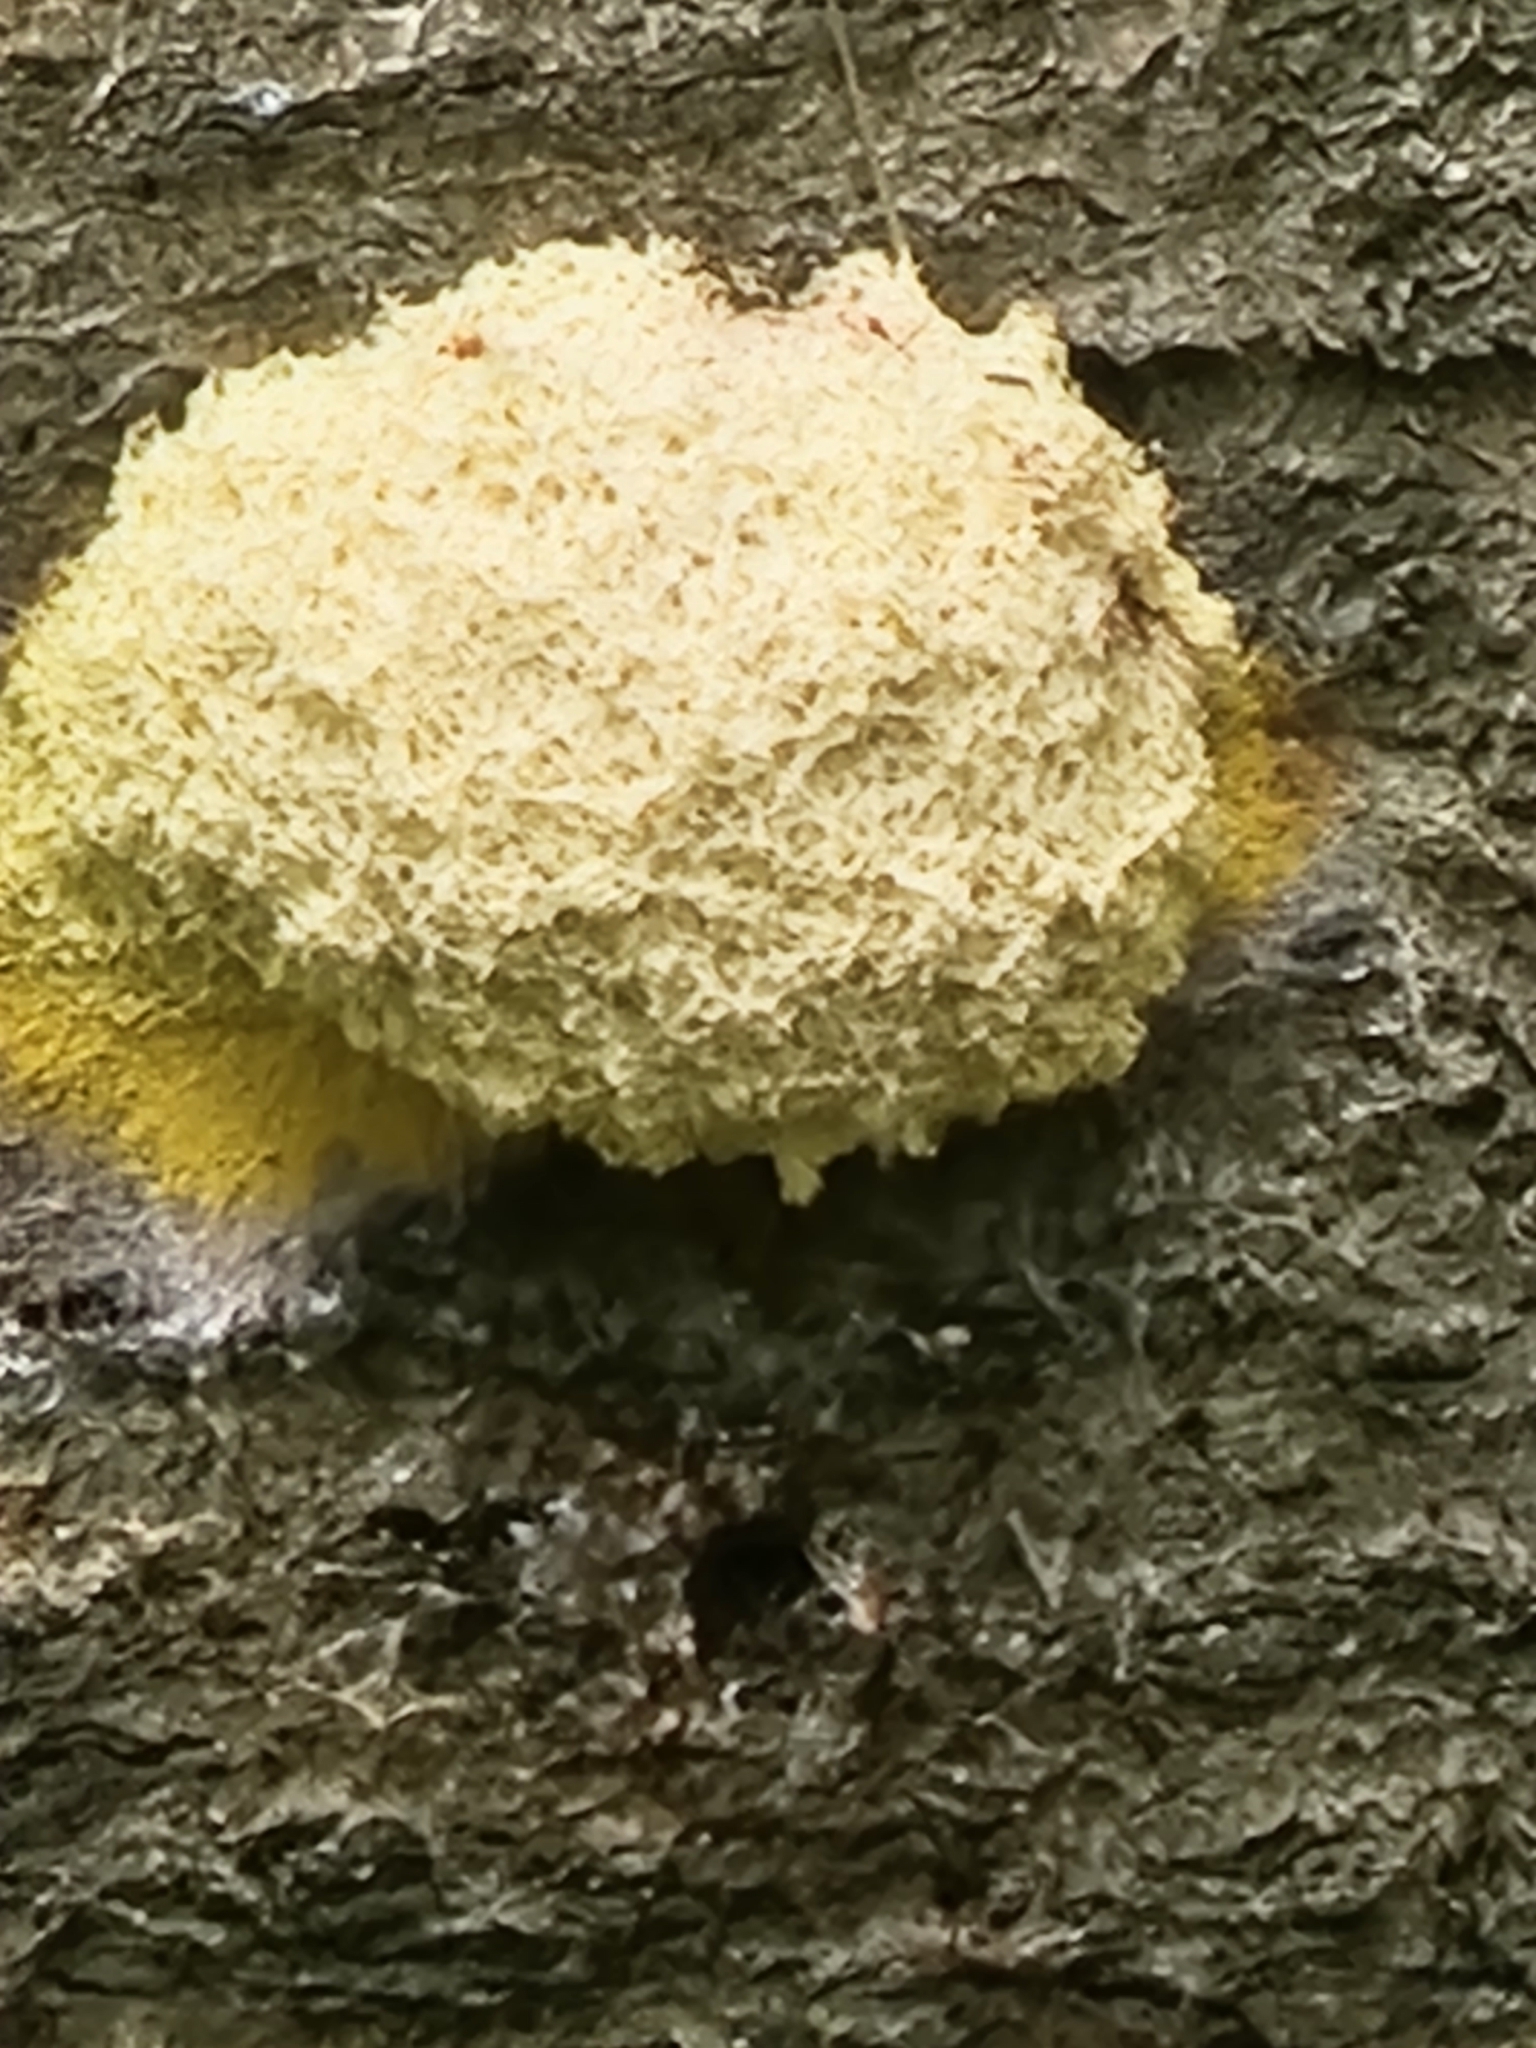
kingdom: Protozoa
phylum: Mycetozoa
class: Myxomycetes
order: Physarales
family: Physaraceae
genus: Fuligo
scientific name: Fuligo septica
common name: Dog vomit slime mold
